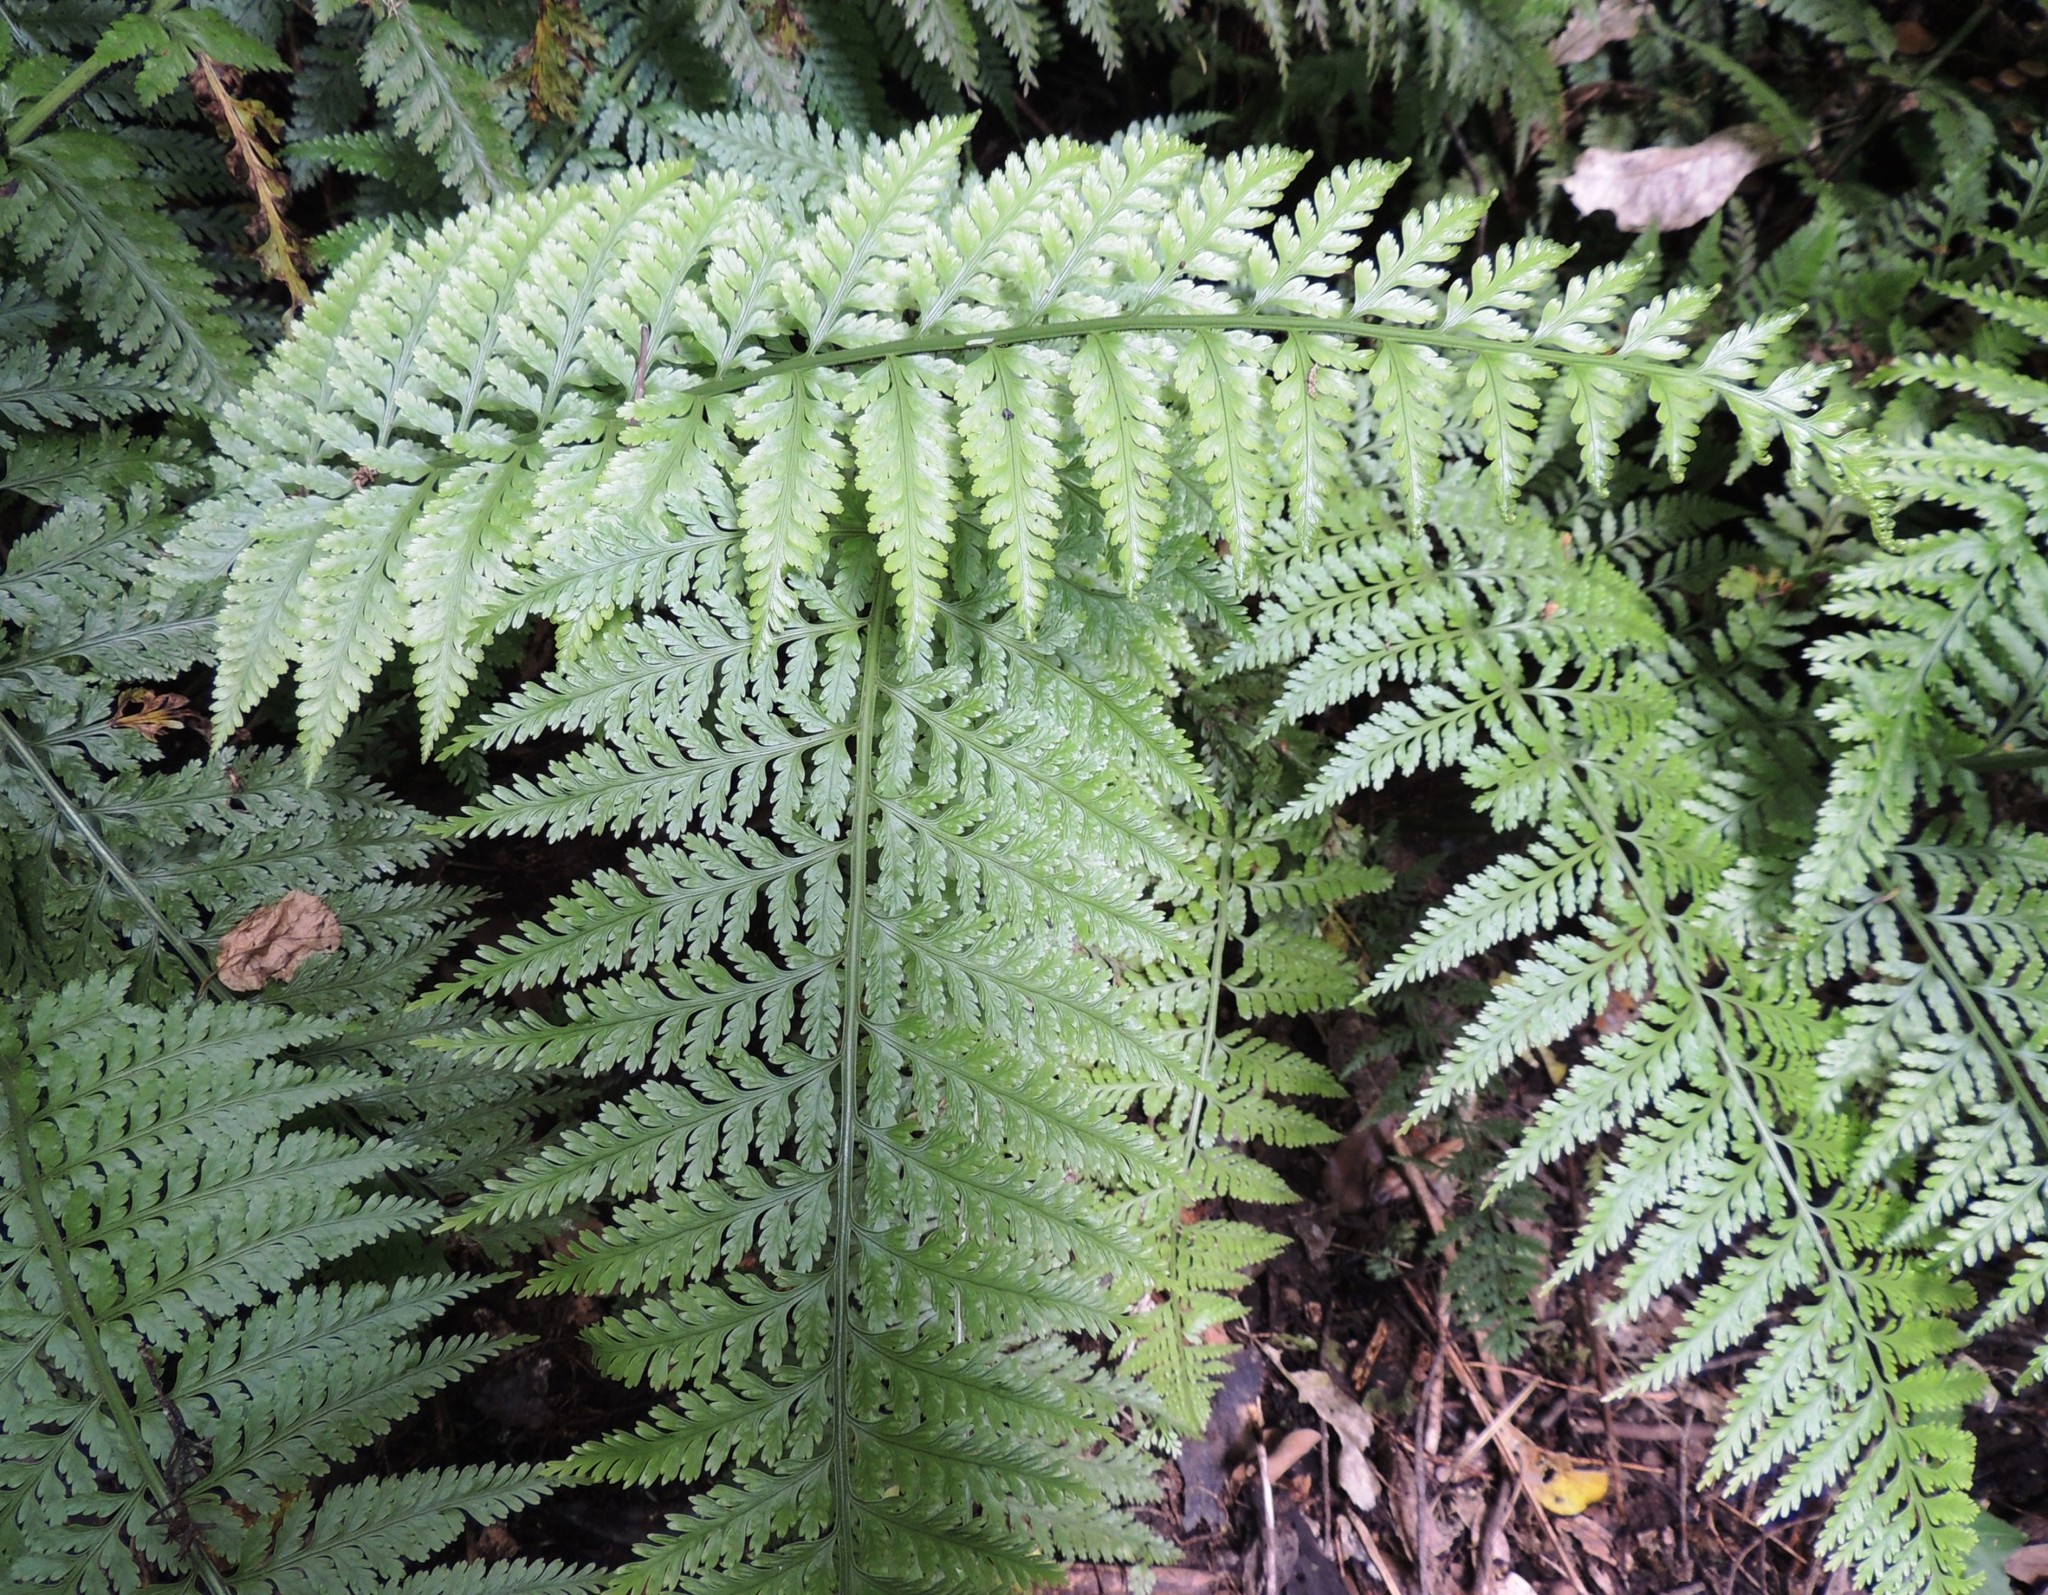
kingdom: Plantae
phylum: Tracheophyta
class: Polypodiopsida
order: Polypodiales
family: Aspleniaceae
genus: Asplenium
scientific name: Asplenium bulbiferum
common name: Mother fern
